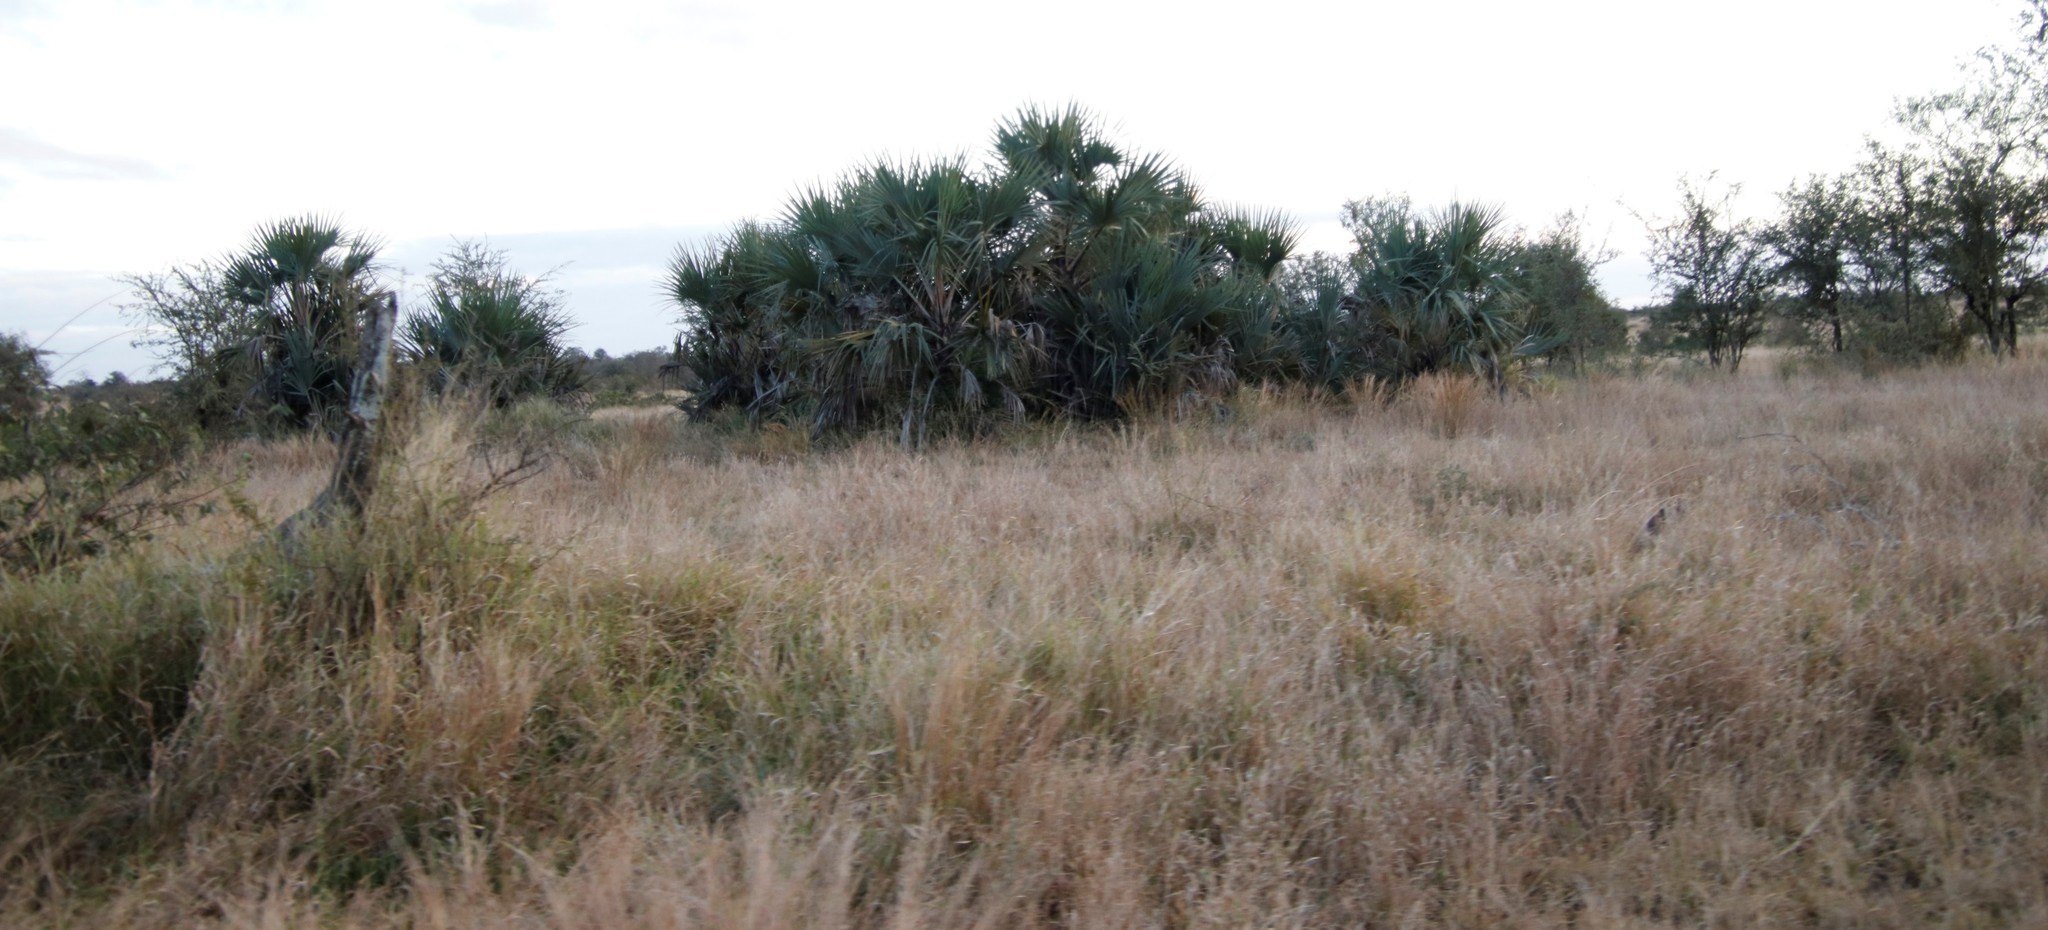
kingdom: Plantae
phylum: Tracheophyta
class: Liliopsida
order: Arecales
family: Arecaceae
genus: Hyphaene
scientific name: Hyphaene coriacea
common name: Ilala palm
